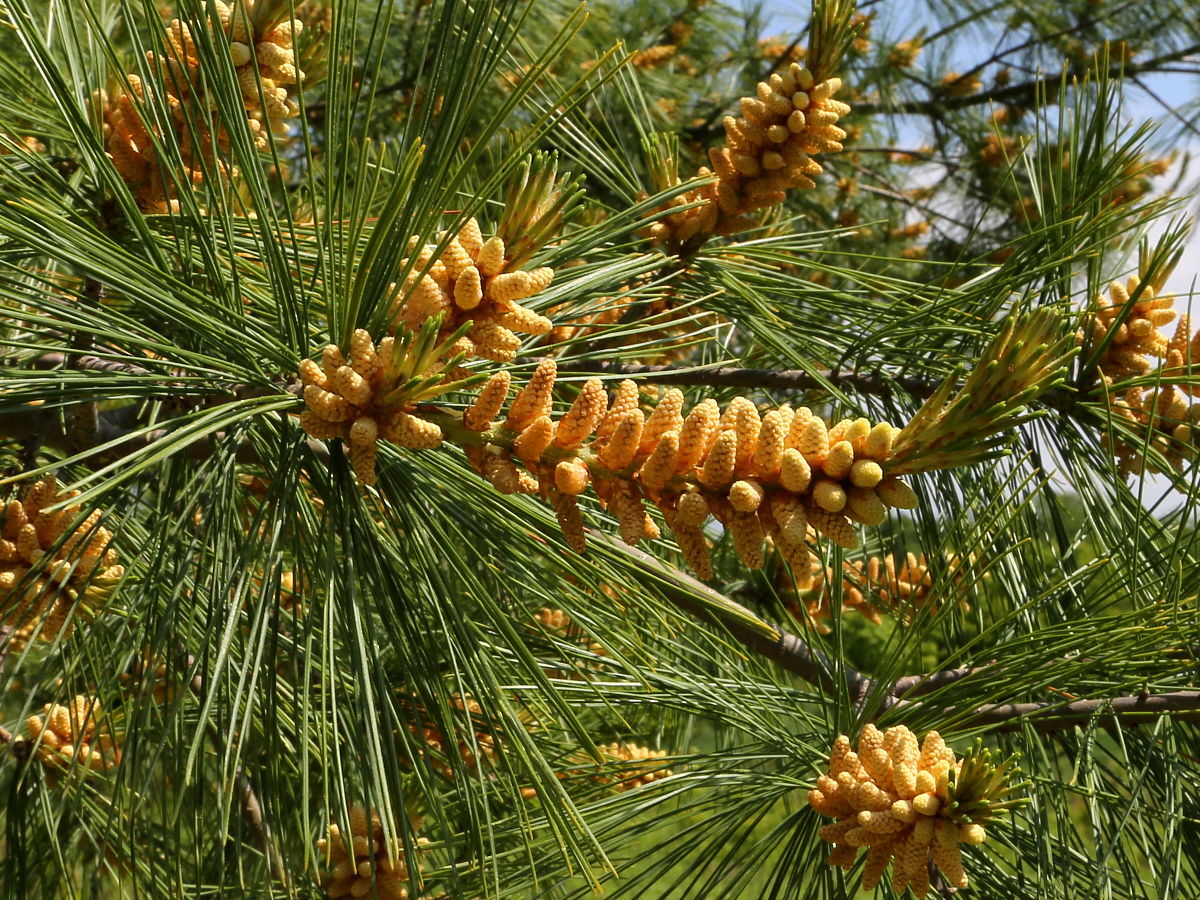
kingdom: Plantae
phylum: Tracheophyta
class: Pinopsida
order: Pinales
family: Pinaceae
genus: Pinus
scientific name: Pinus strobus
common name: Weymouth pine
